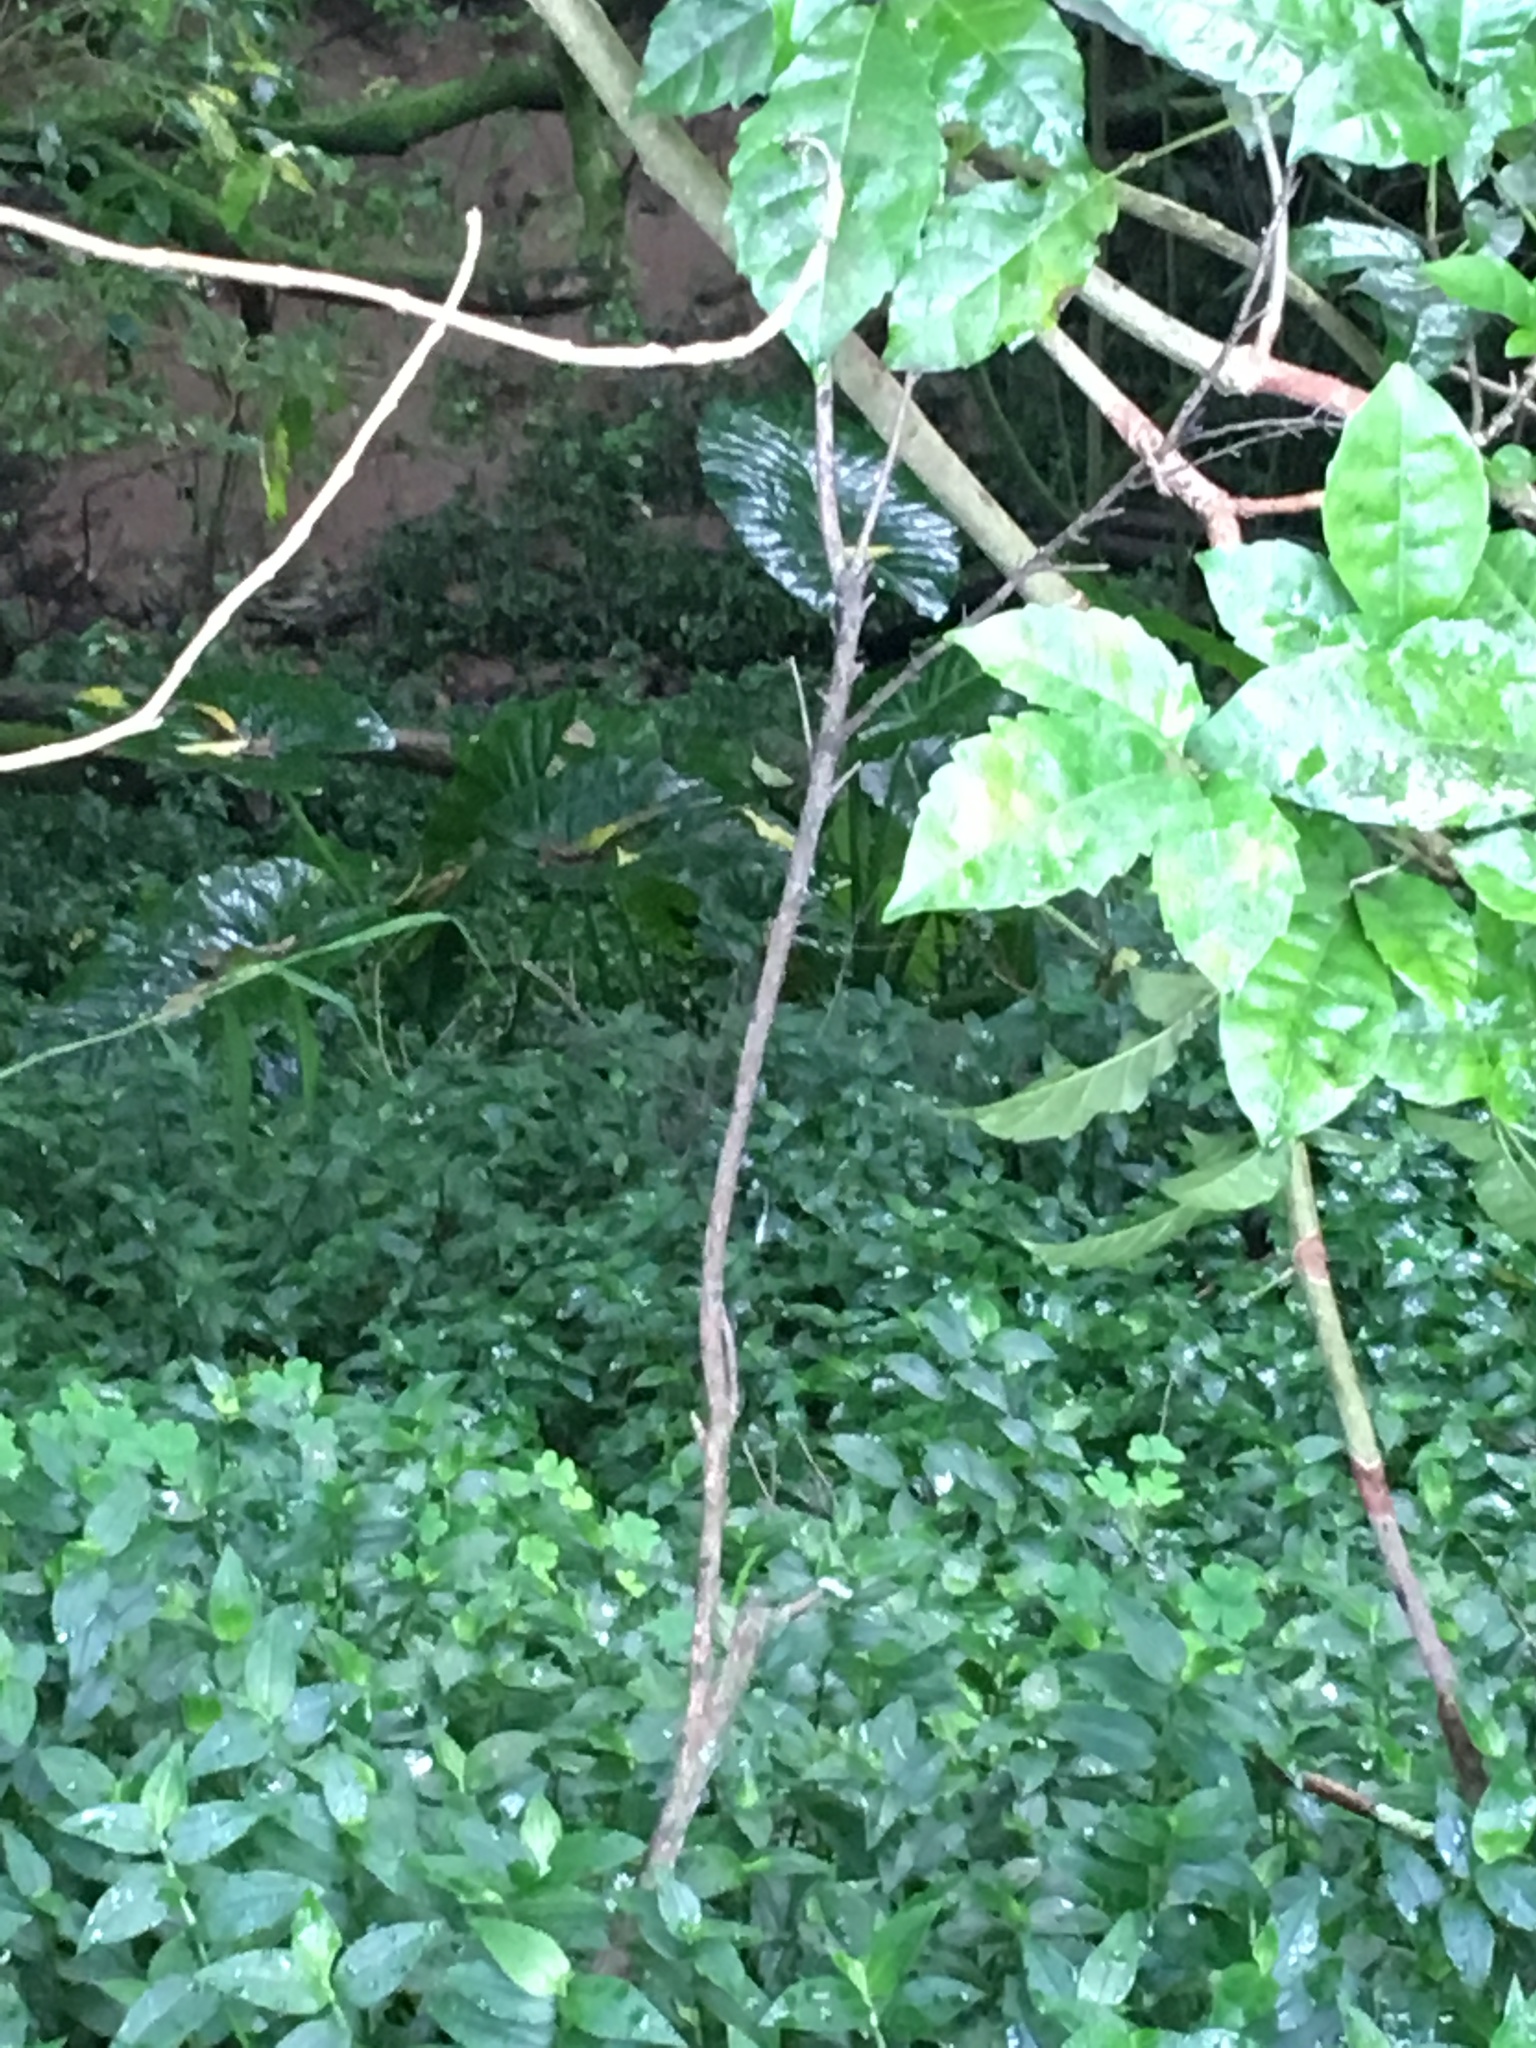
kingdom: Plantae
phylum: Tracheophyta
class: Liliopsida
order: Commelinales
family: Commelinaceae
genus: Tradescantia
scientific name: Tradescantia fluminensis
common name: Wandering-jew
